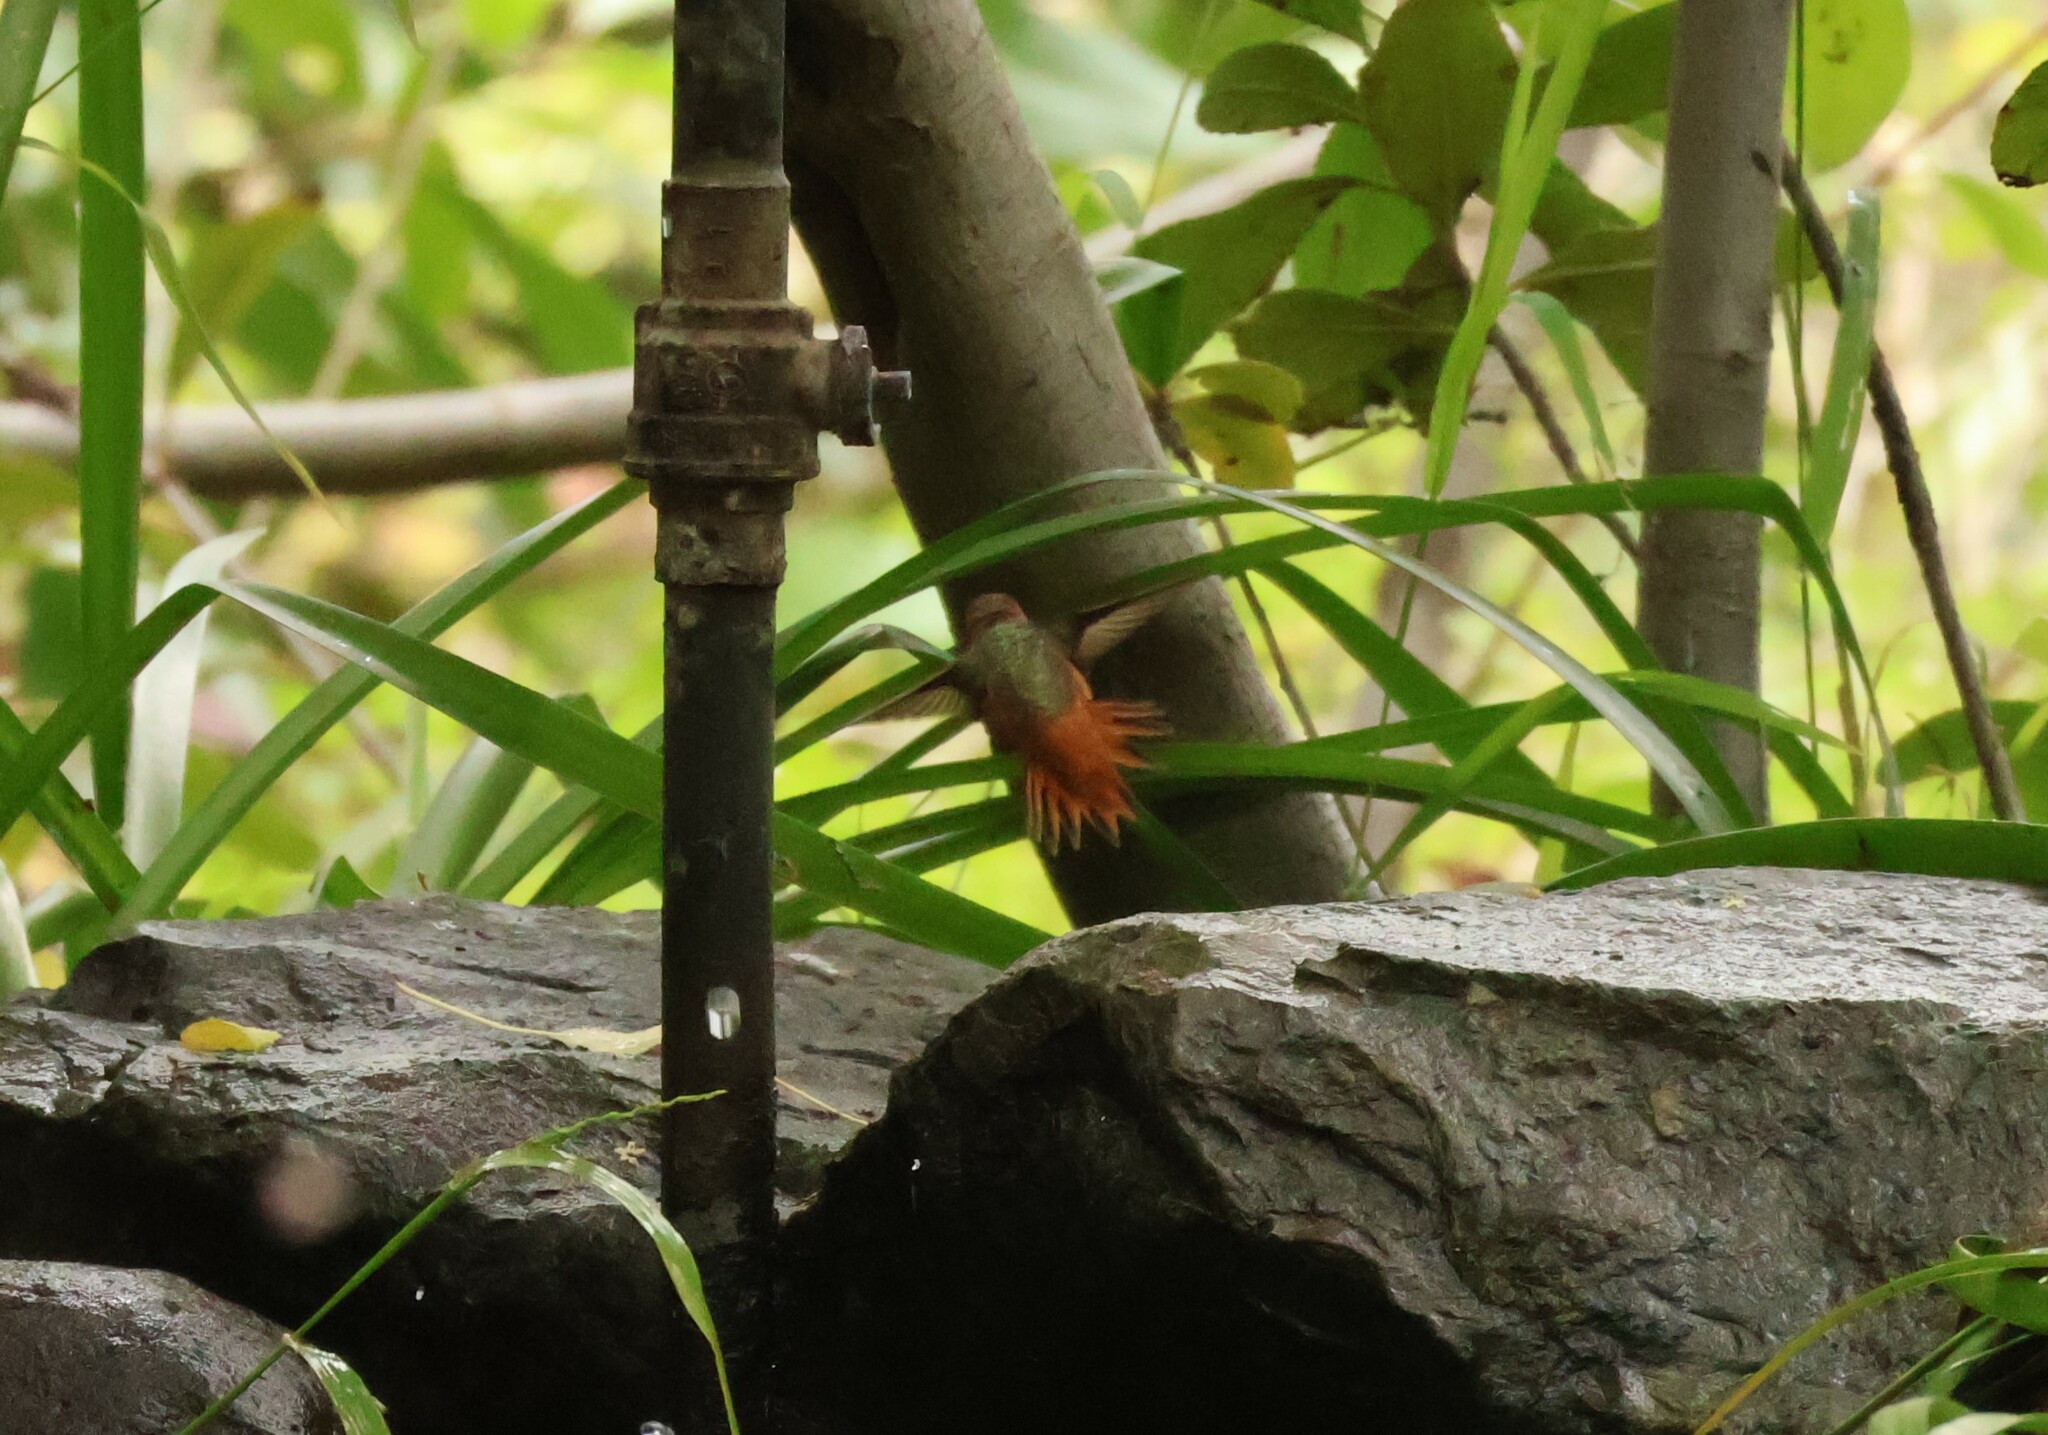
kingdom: Animalia
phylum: Chordata
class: Aves
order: Apodiformes
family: Trochilidae
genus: Selasphorus
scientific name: Selasphorus sasin
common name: Allen's hummingbird
